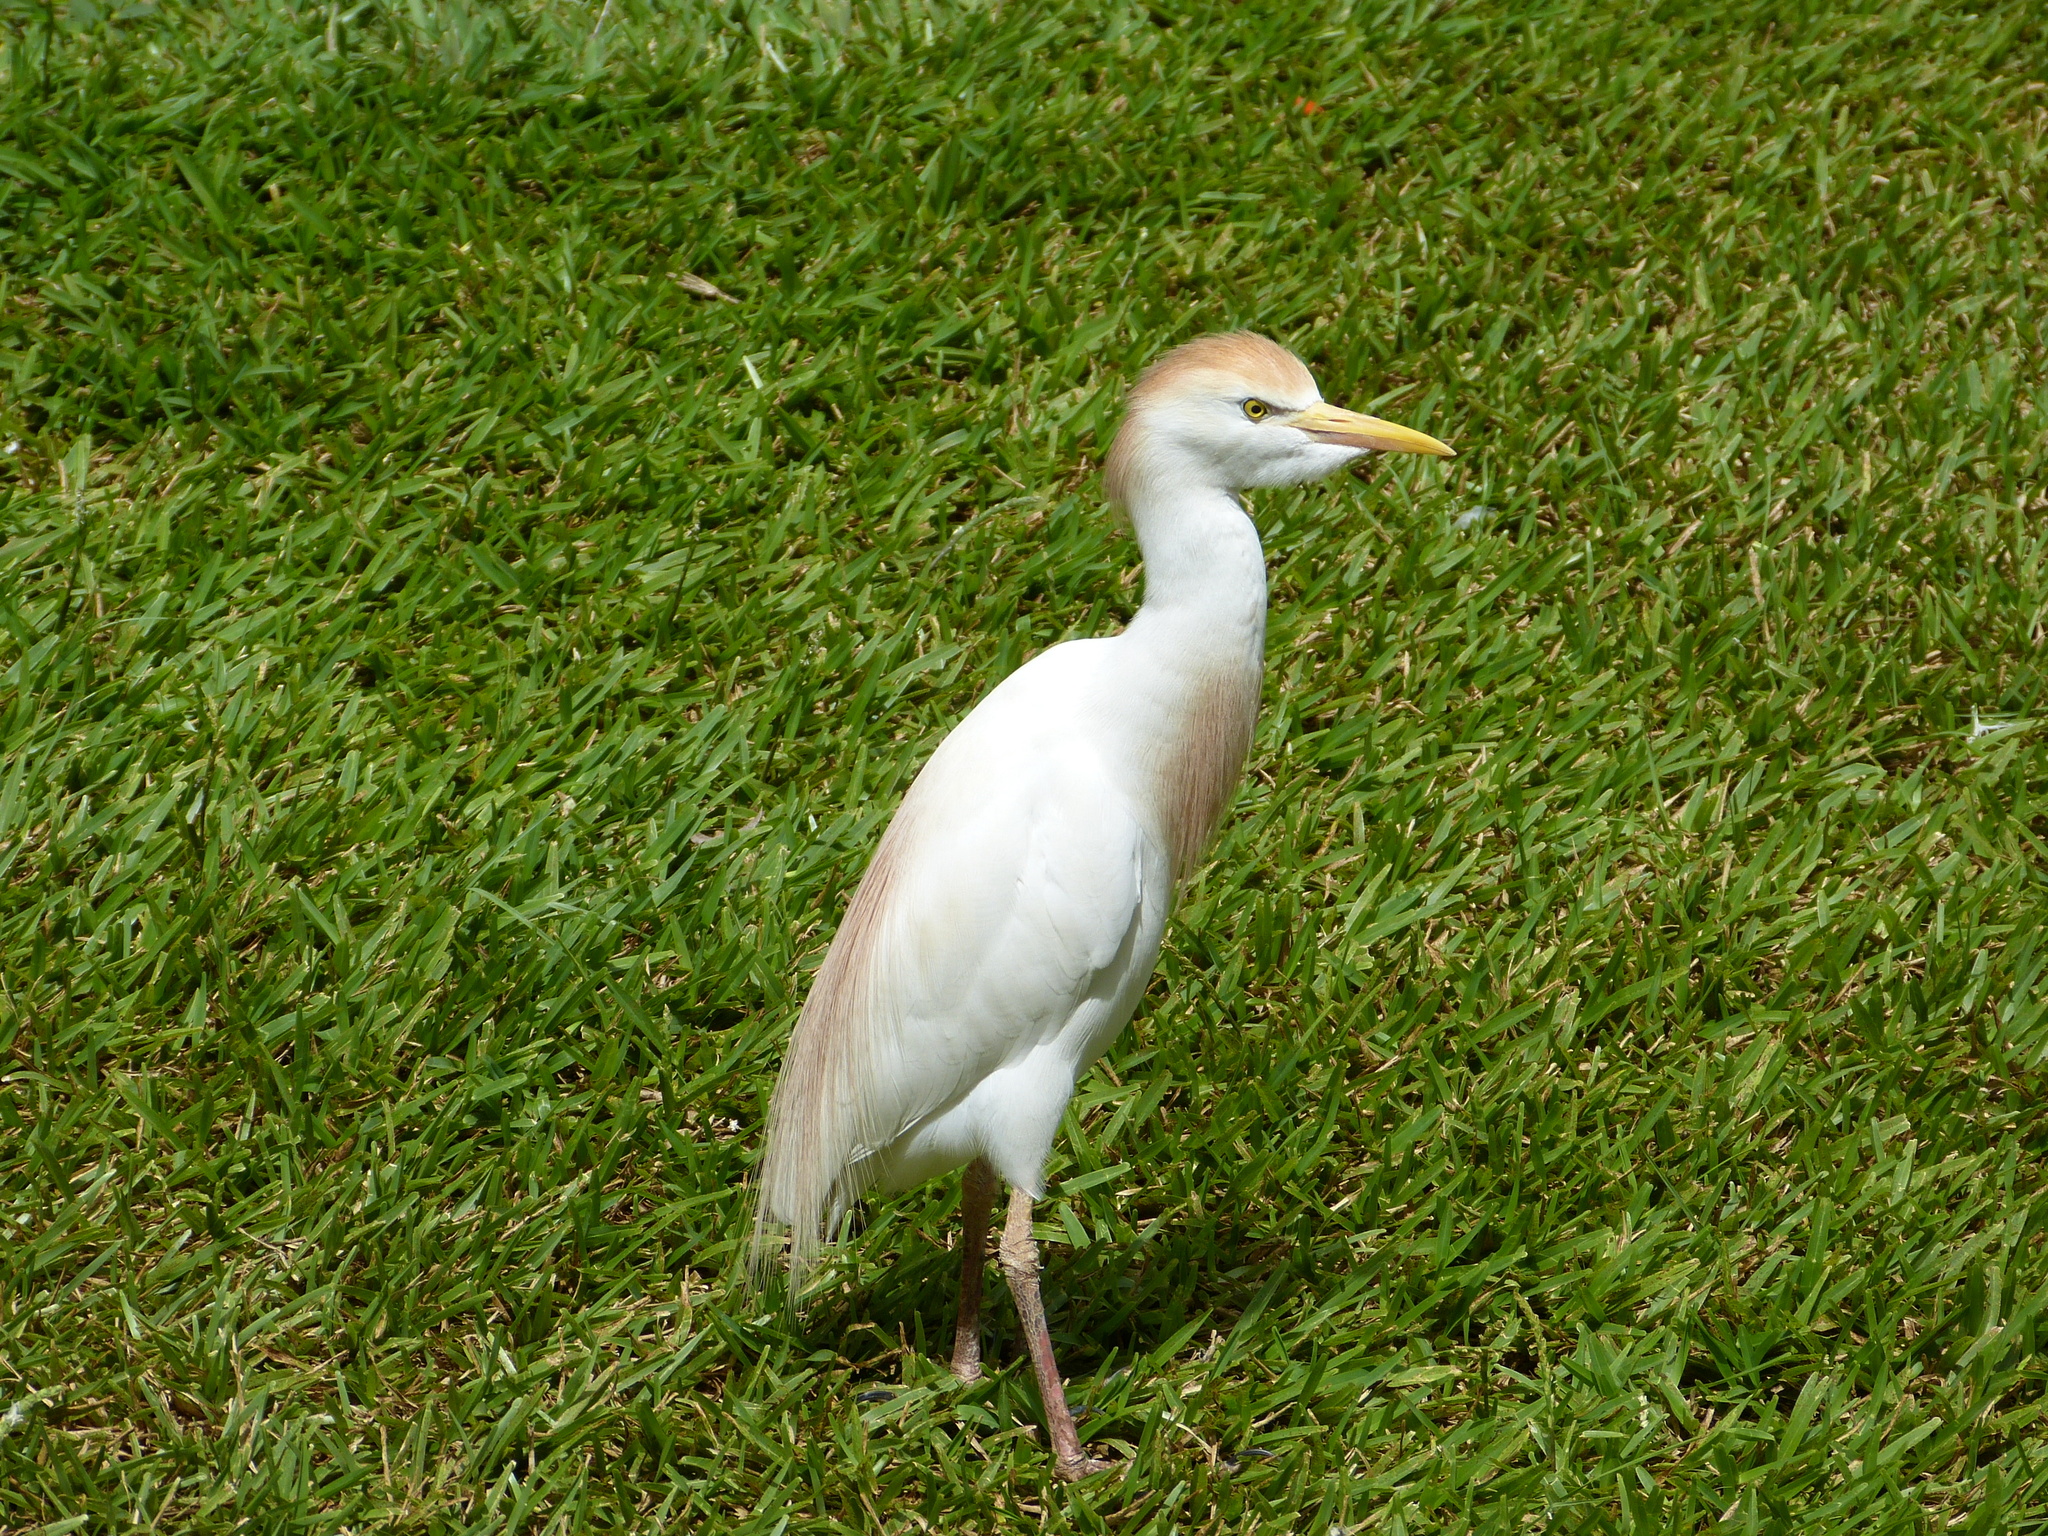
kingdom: Animalia
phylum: Chordata
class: Aves
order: Pelecaniformes
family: Ardeidae
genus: Bubulcus
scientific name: Bubulcus ibis
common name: Cattle egret
